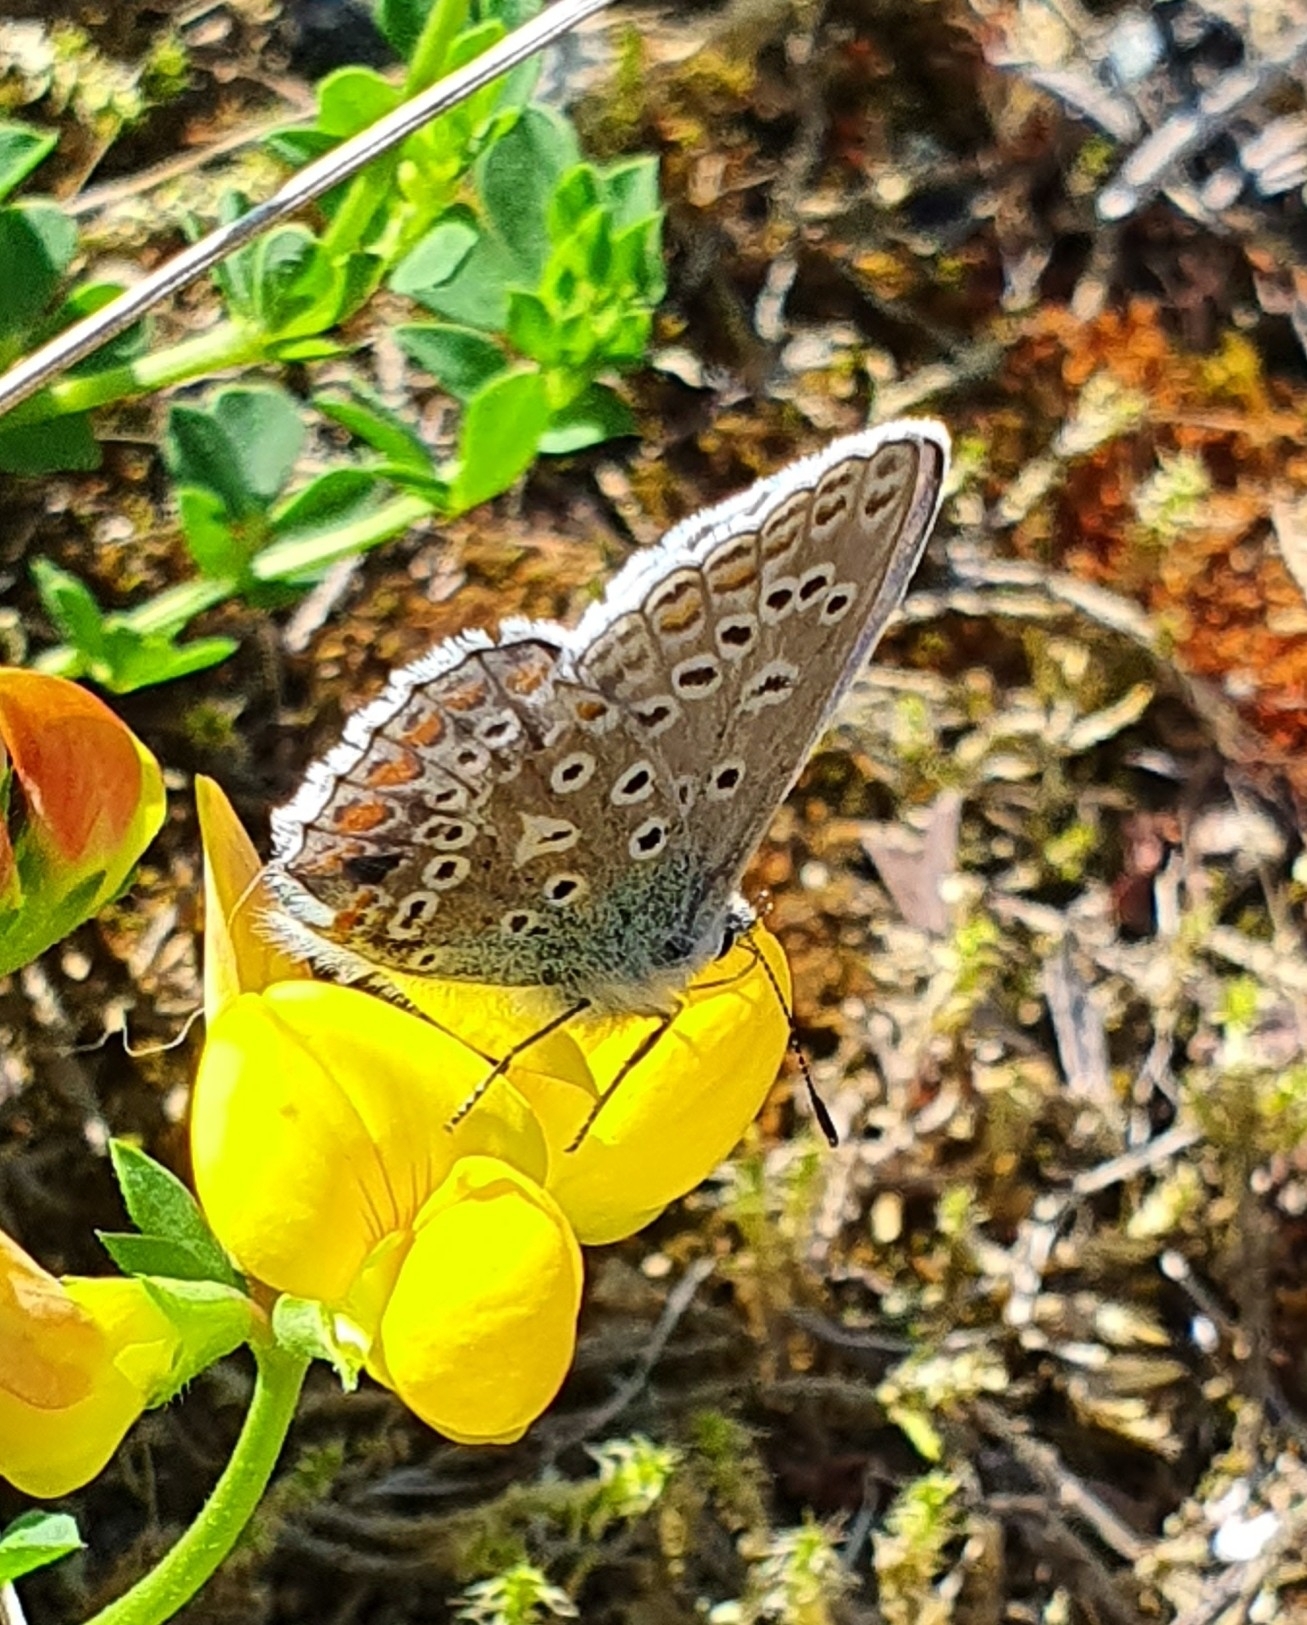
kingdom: Animalia
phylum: Arthropoda
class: Insecta
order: Lepidoptera
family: Lycaenidae
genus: Polyommatus
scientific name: Polyommatus icarus
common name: Common blue
